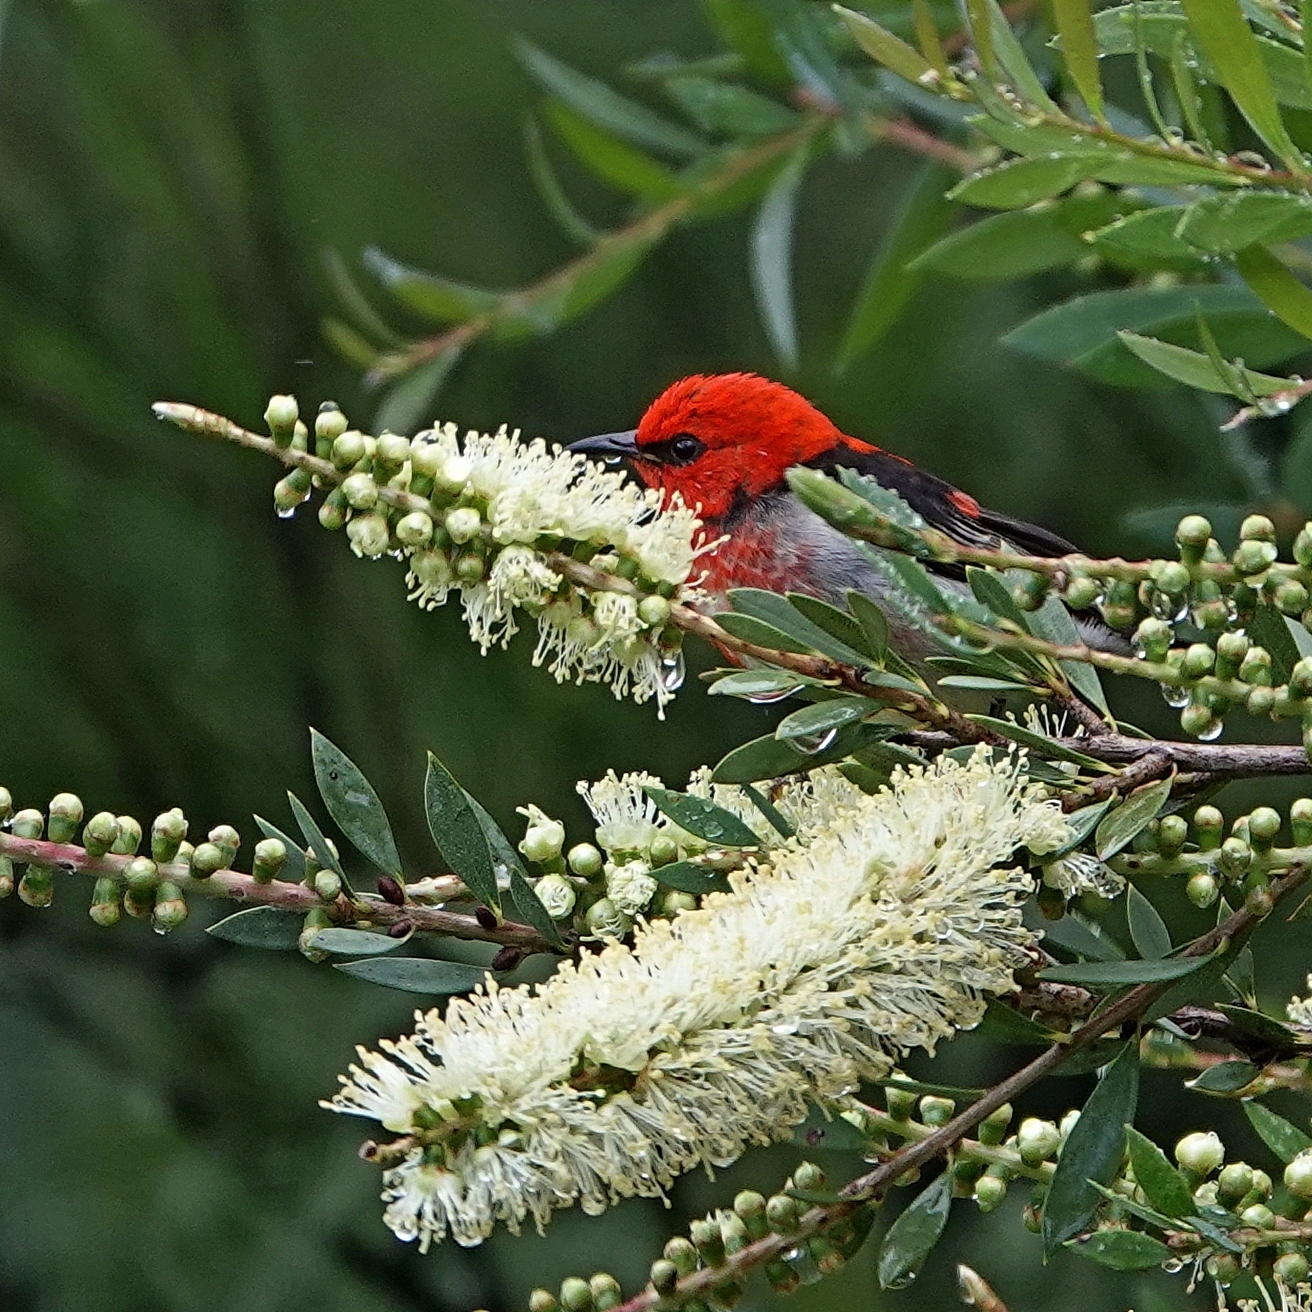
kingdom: Animalia
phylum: Chordata
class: Aves
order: Passeriformes
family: Meliphagidae
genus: Myzomela
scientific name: Myzomela sanguinolenta
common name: Scarlet myzomela
